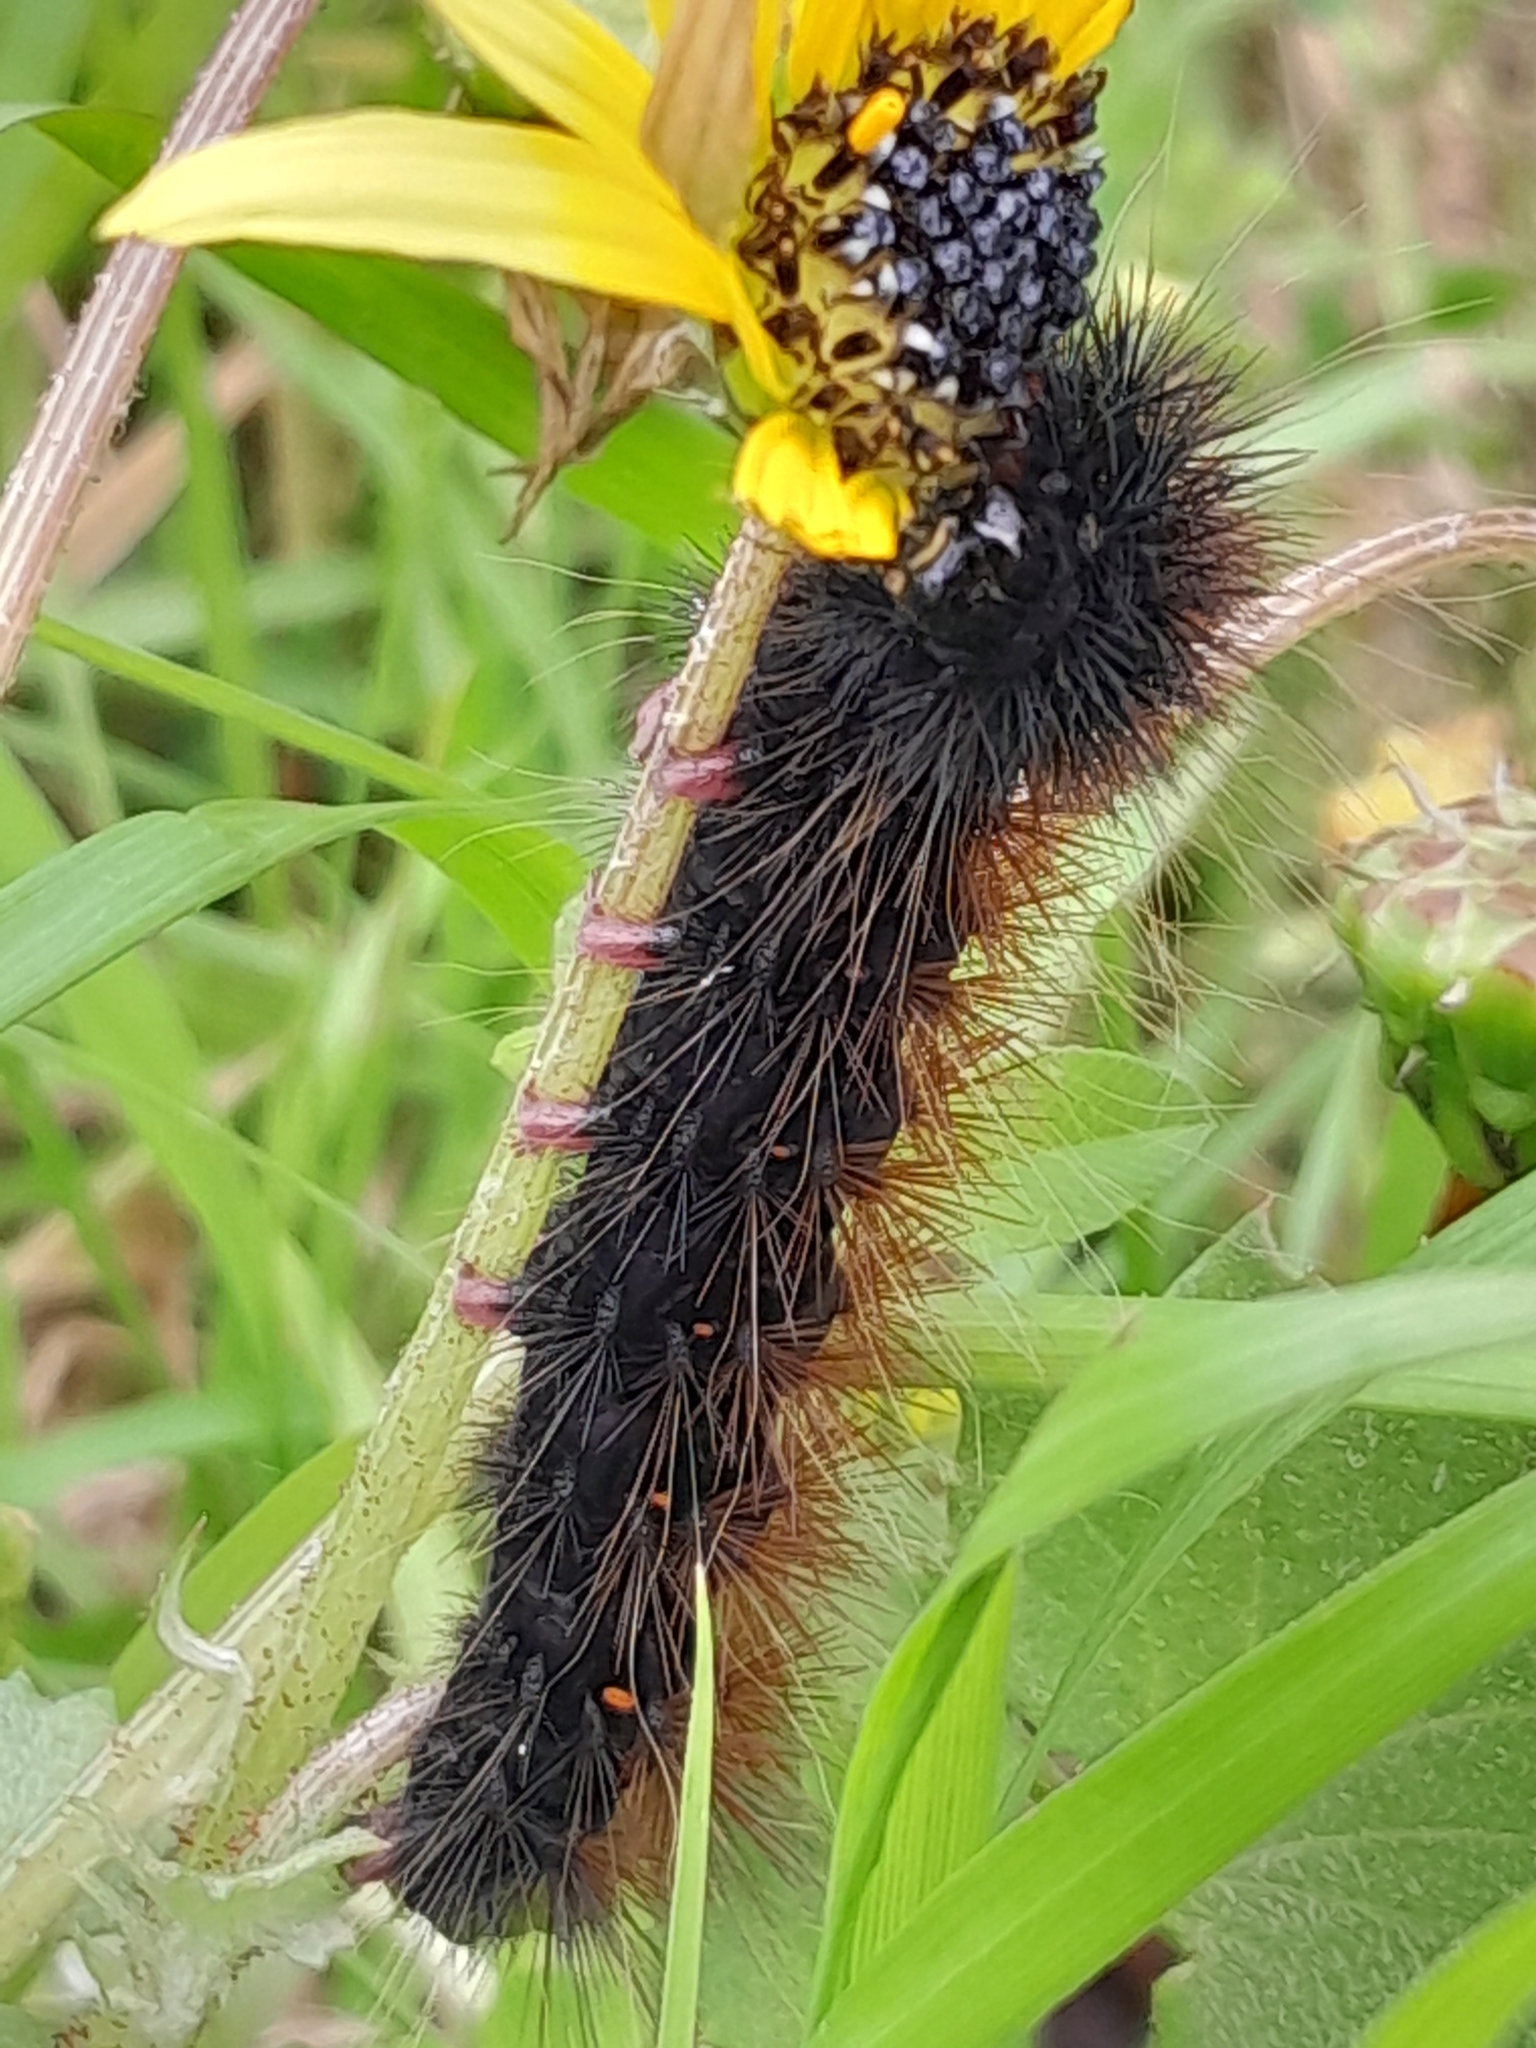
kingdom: Plantae
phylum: Tracheophyta
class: Magnoliopsida
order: Asterales
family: Asteraceae
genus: Arctotheca
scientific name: Arctotheca calendula
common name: Capeweed
